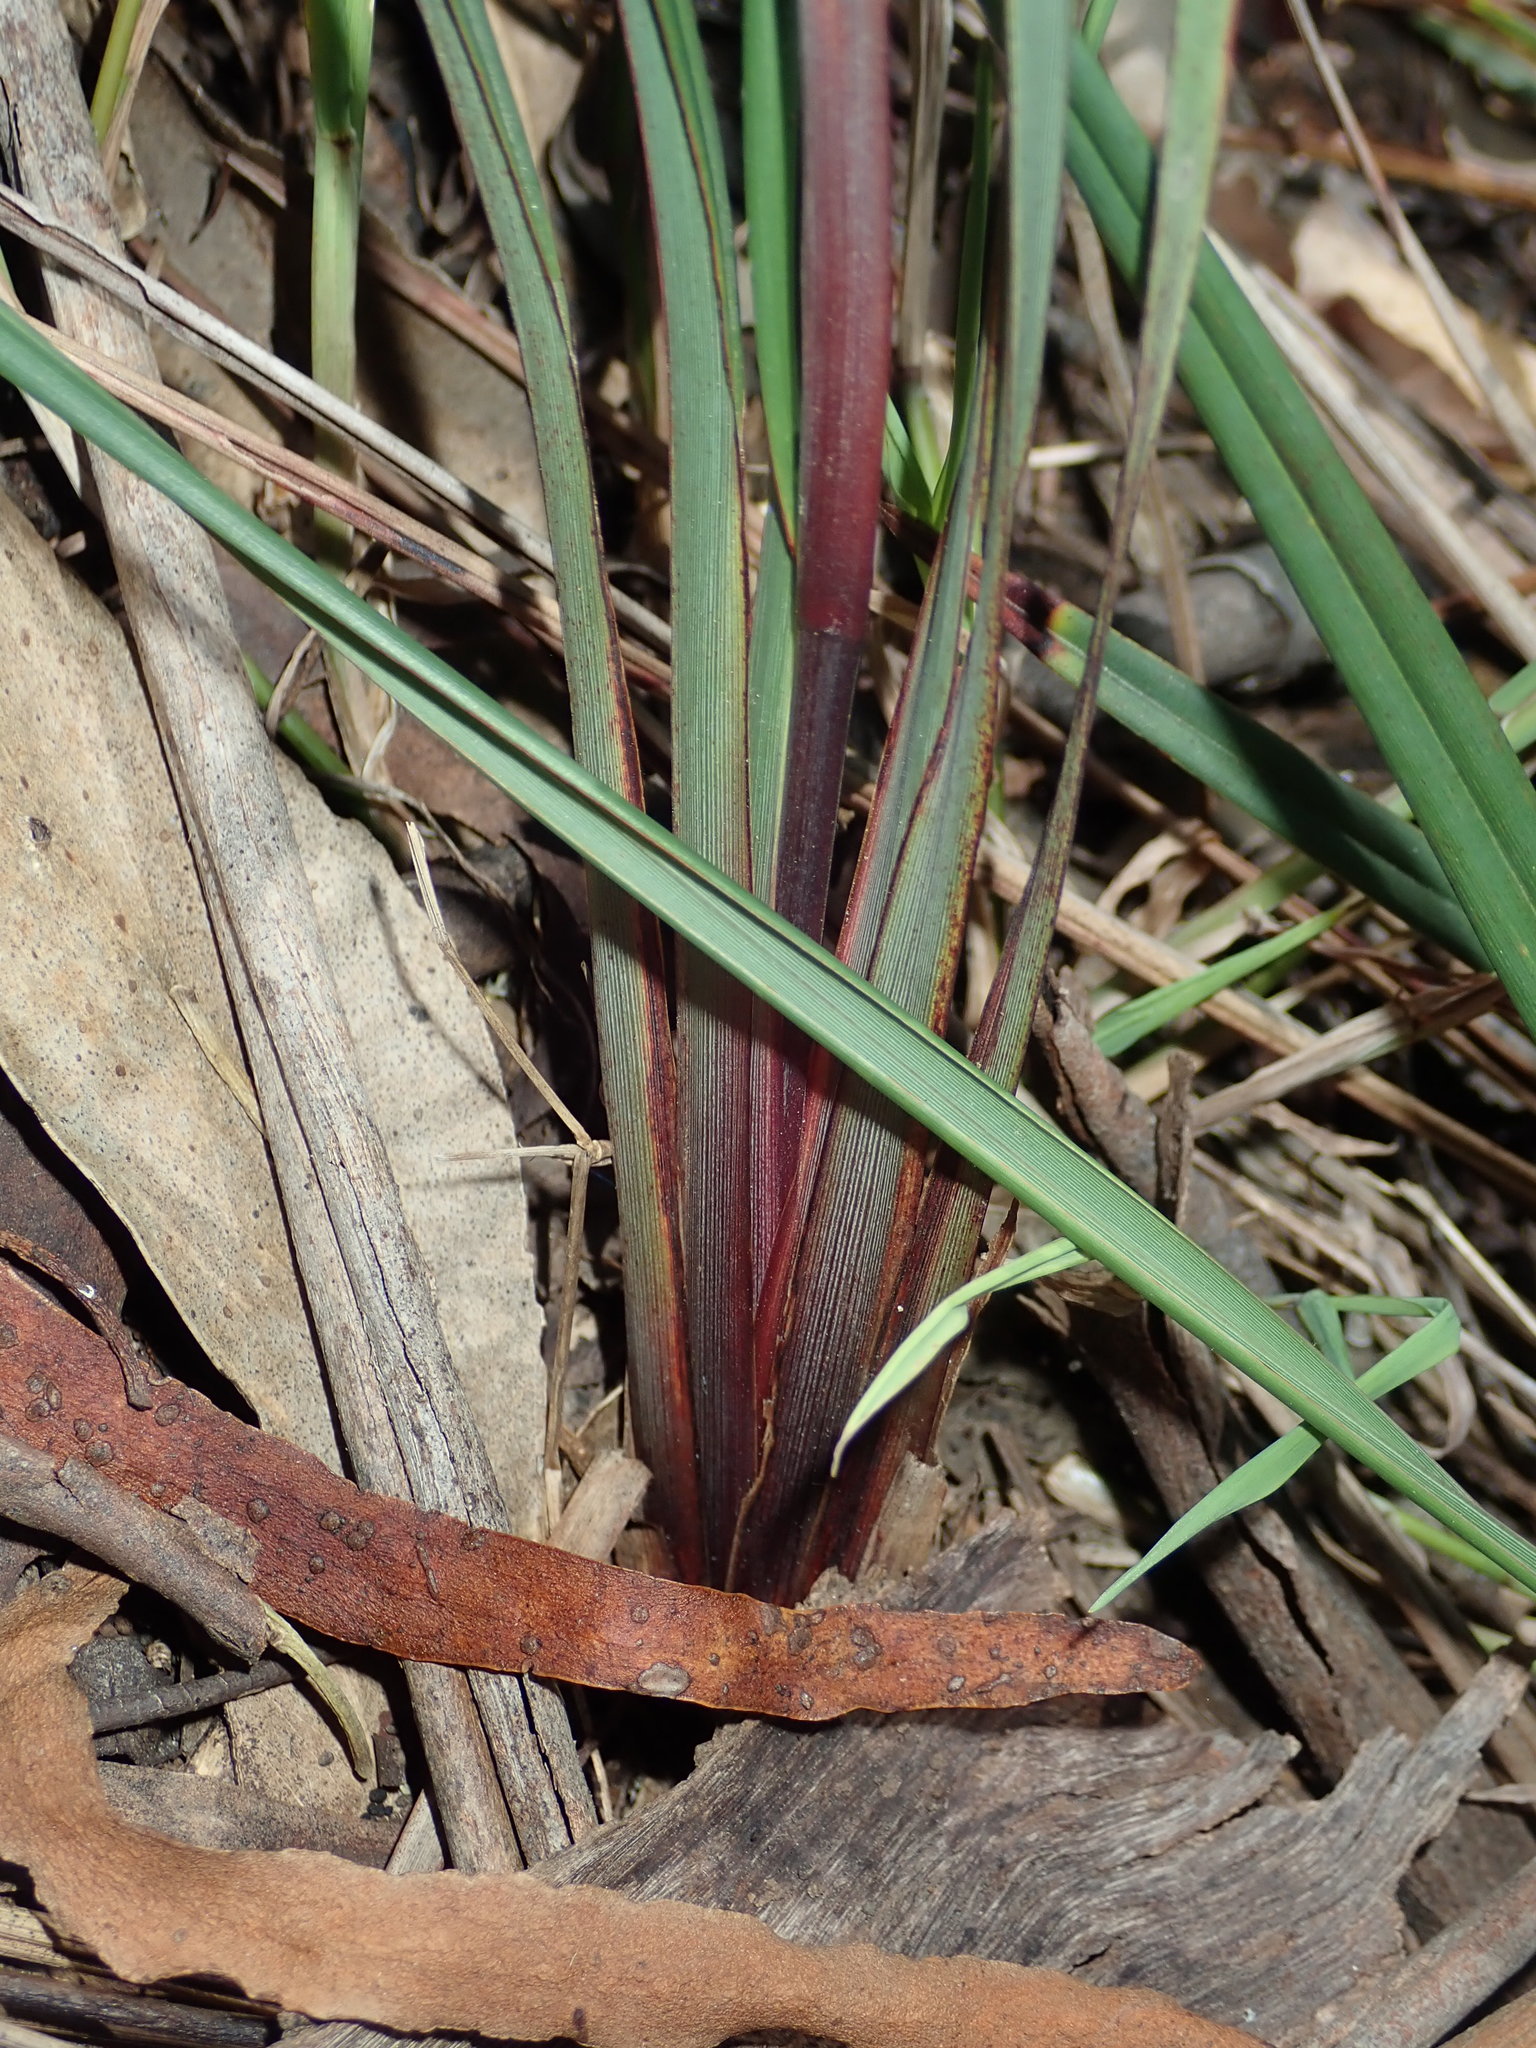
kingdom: Plantae
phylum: Tracheophyta
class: Liliopsida
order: Asparagales
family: Asphodelaceae
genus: Dianella
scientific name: Dianella revoluta
